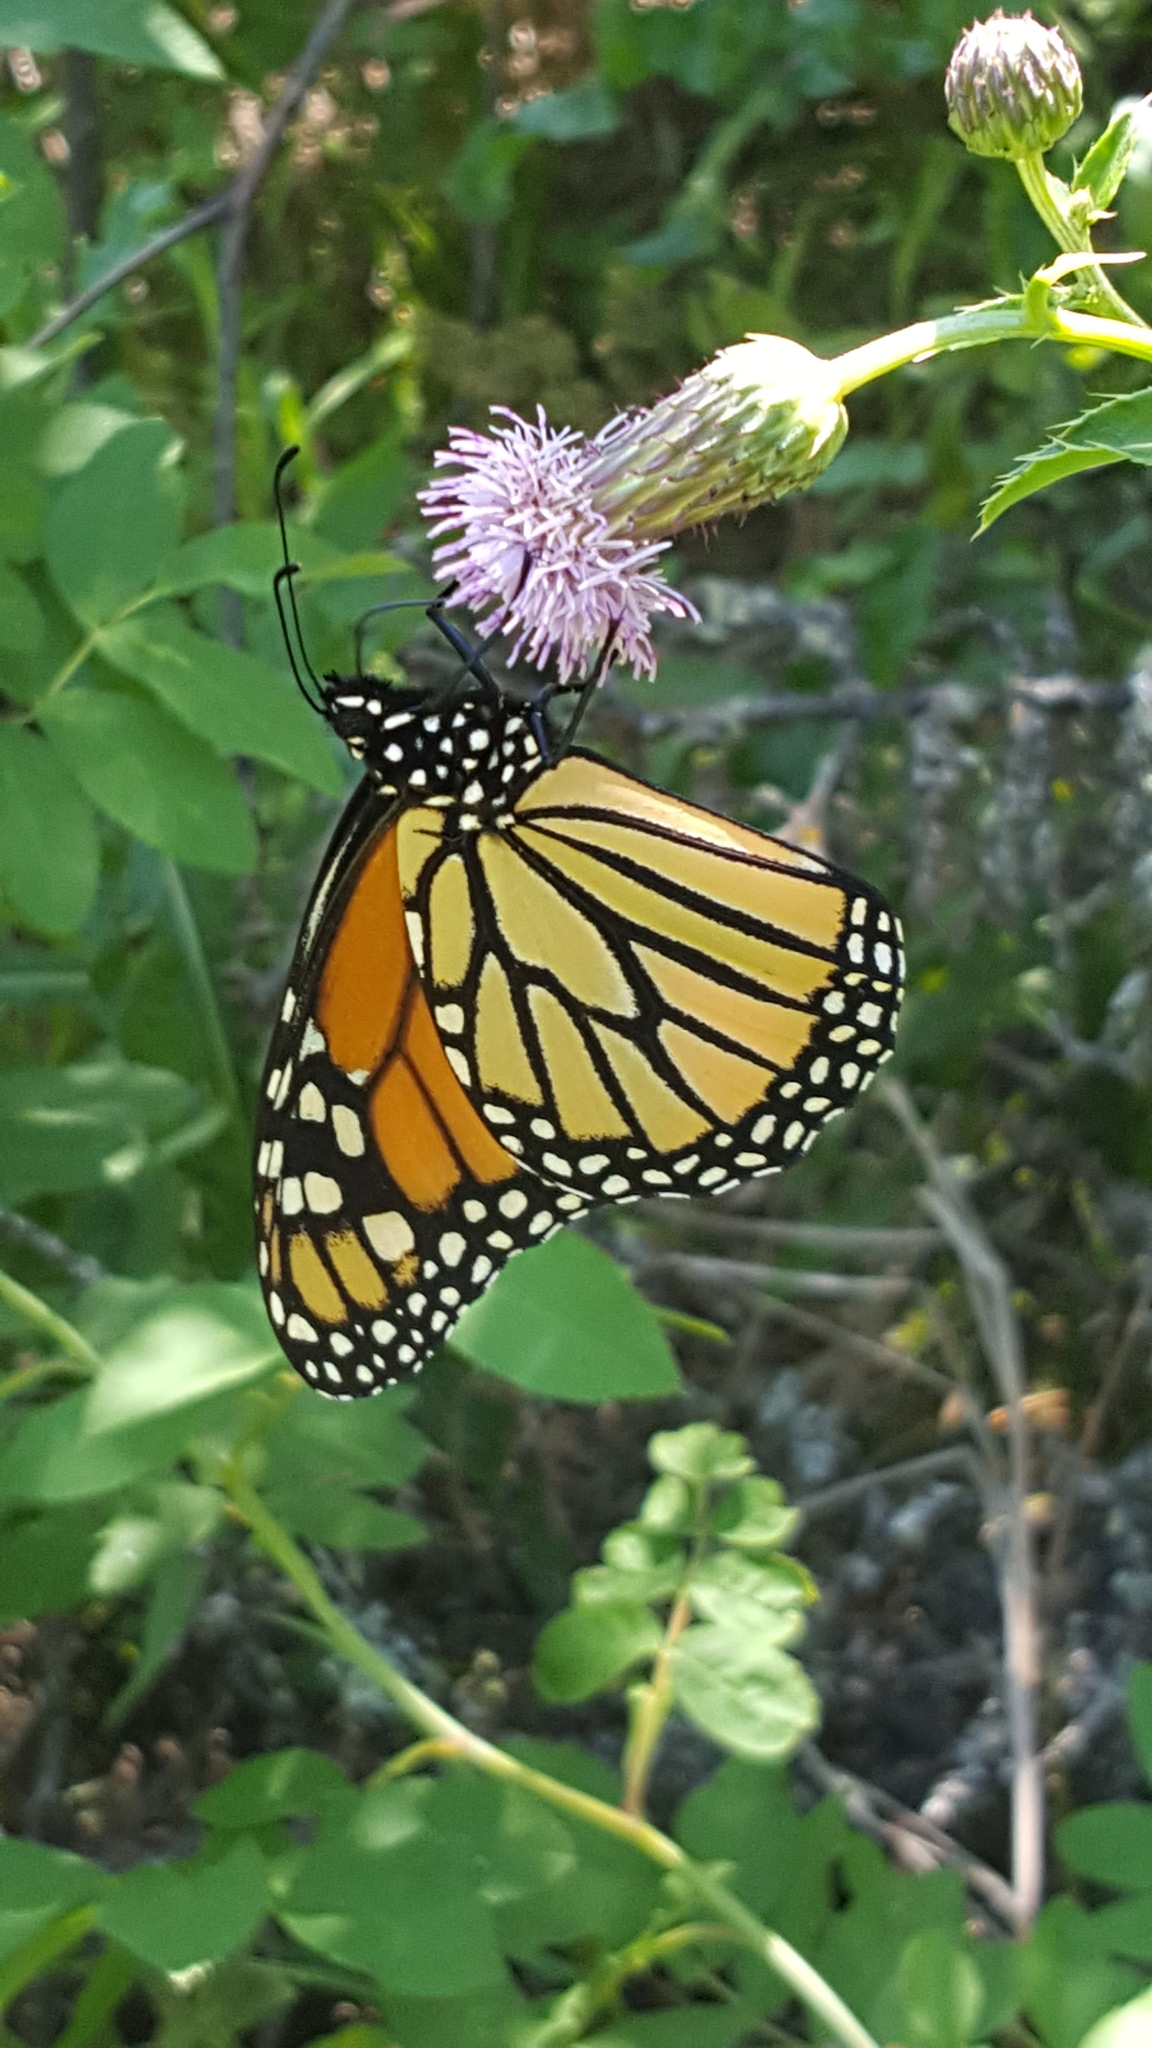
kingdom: Animalia
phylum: Arthropoda
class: Insecta
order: Lepidoptera
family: Nymphalidae
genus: Danaus
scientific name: Danaus plexippus
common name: Monarch
